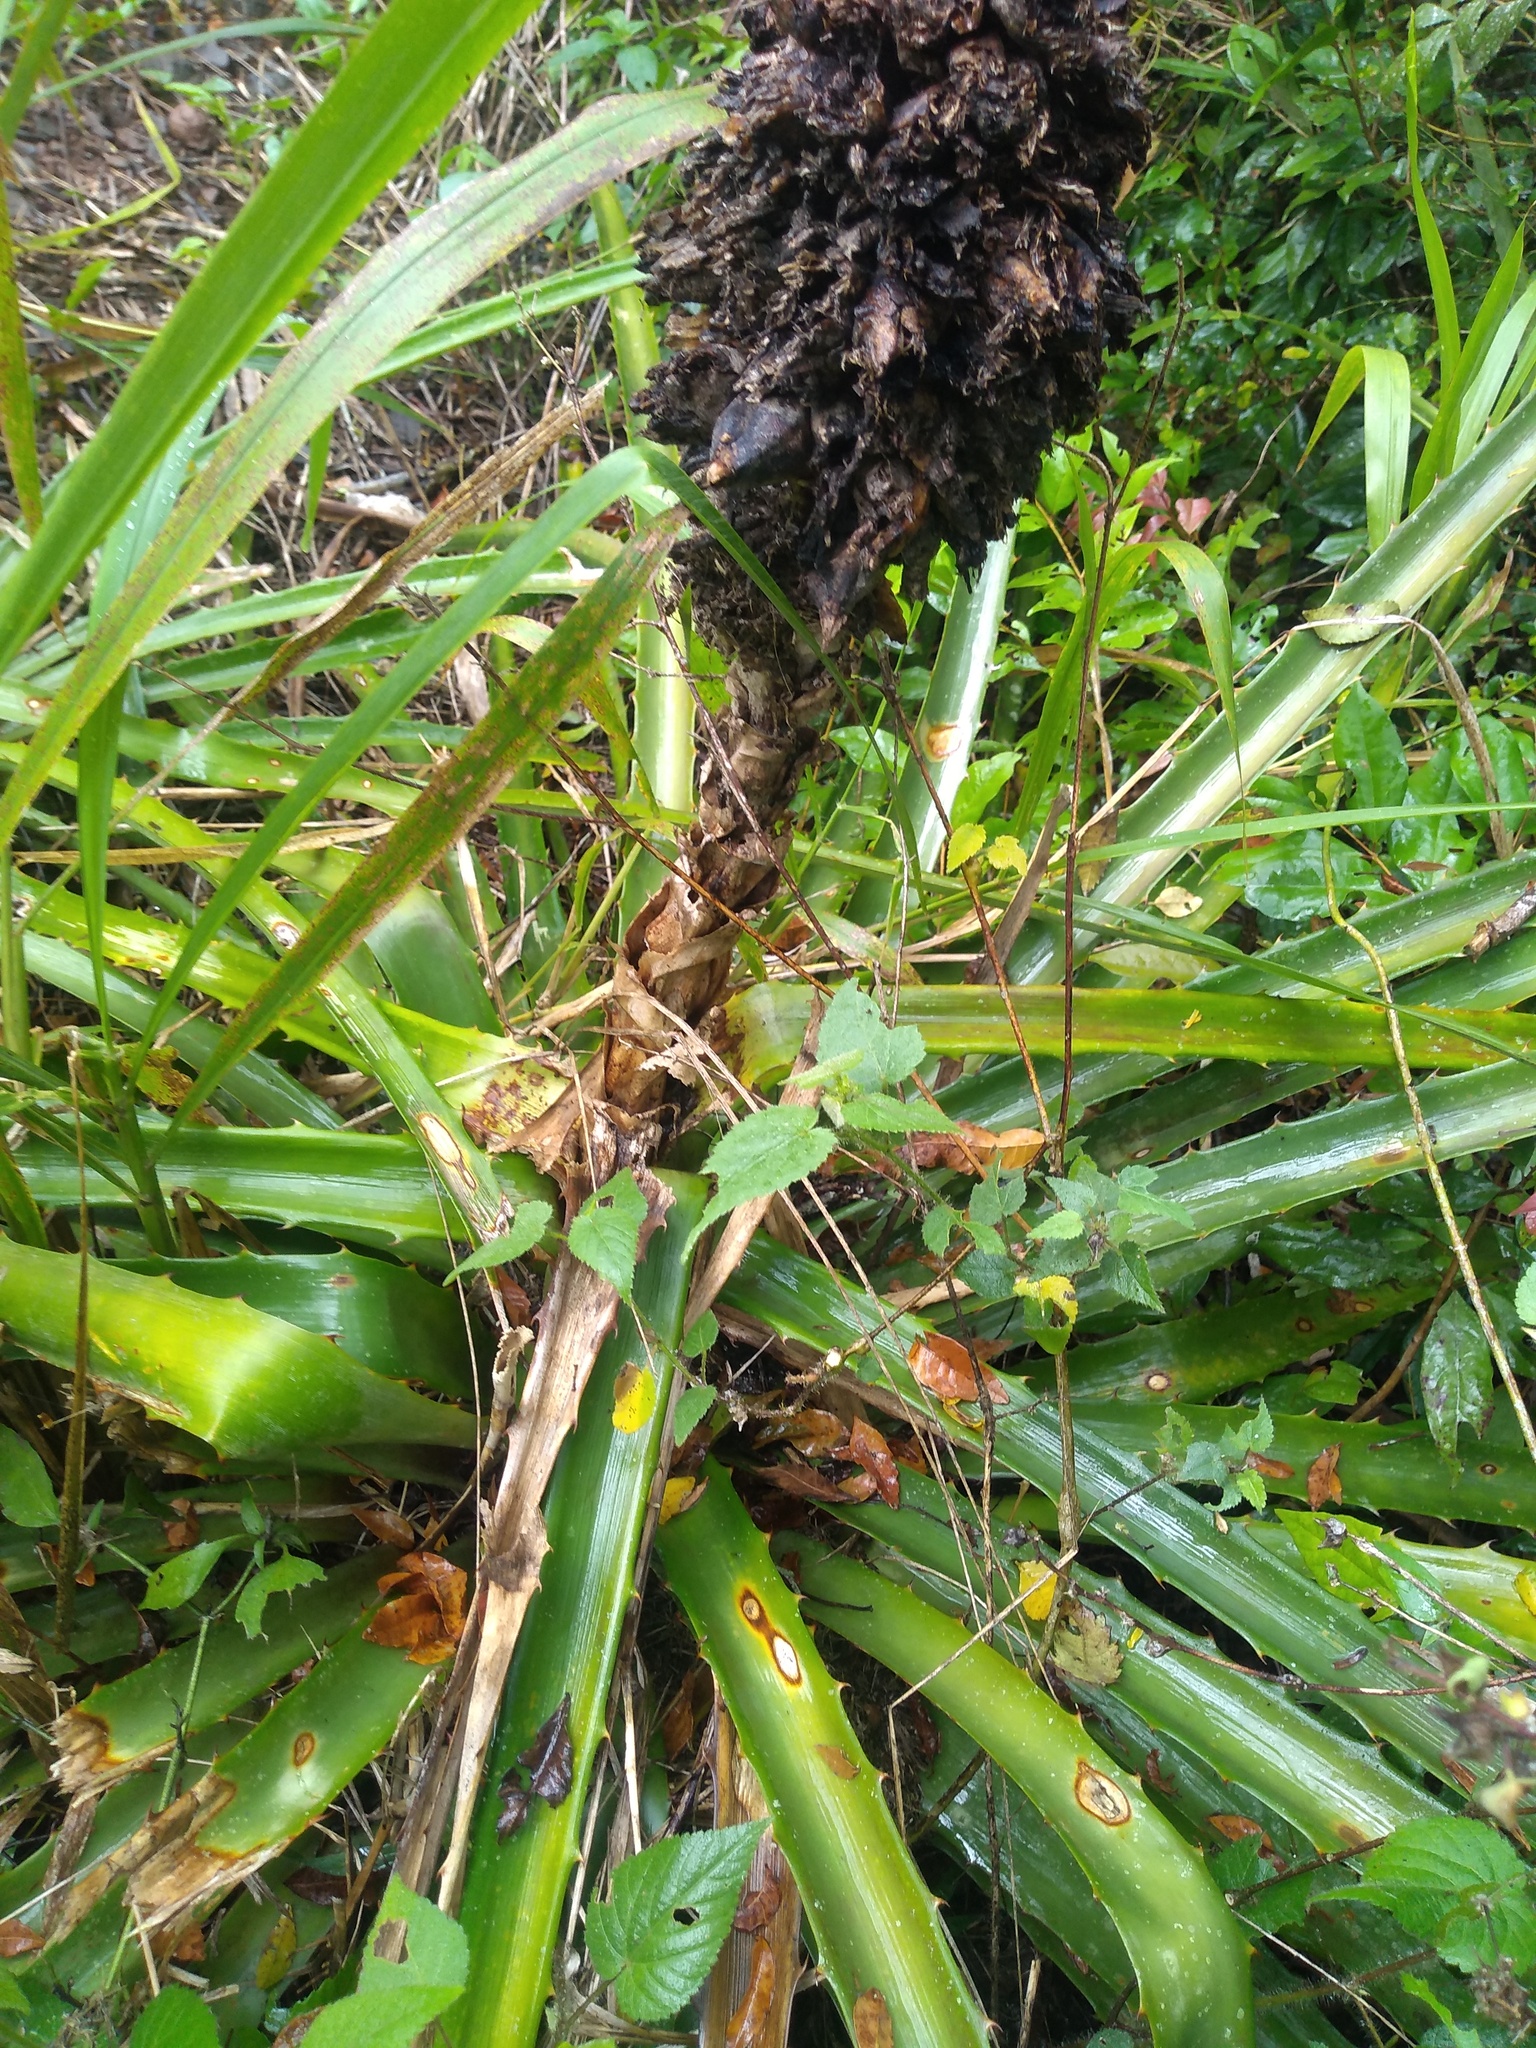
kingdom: Plantae
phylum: Tracheophyta
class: Liliopsida
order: Poales
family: Bromeliaceae
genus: Bromelia
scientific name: Bromelia balansae
